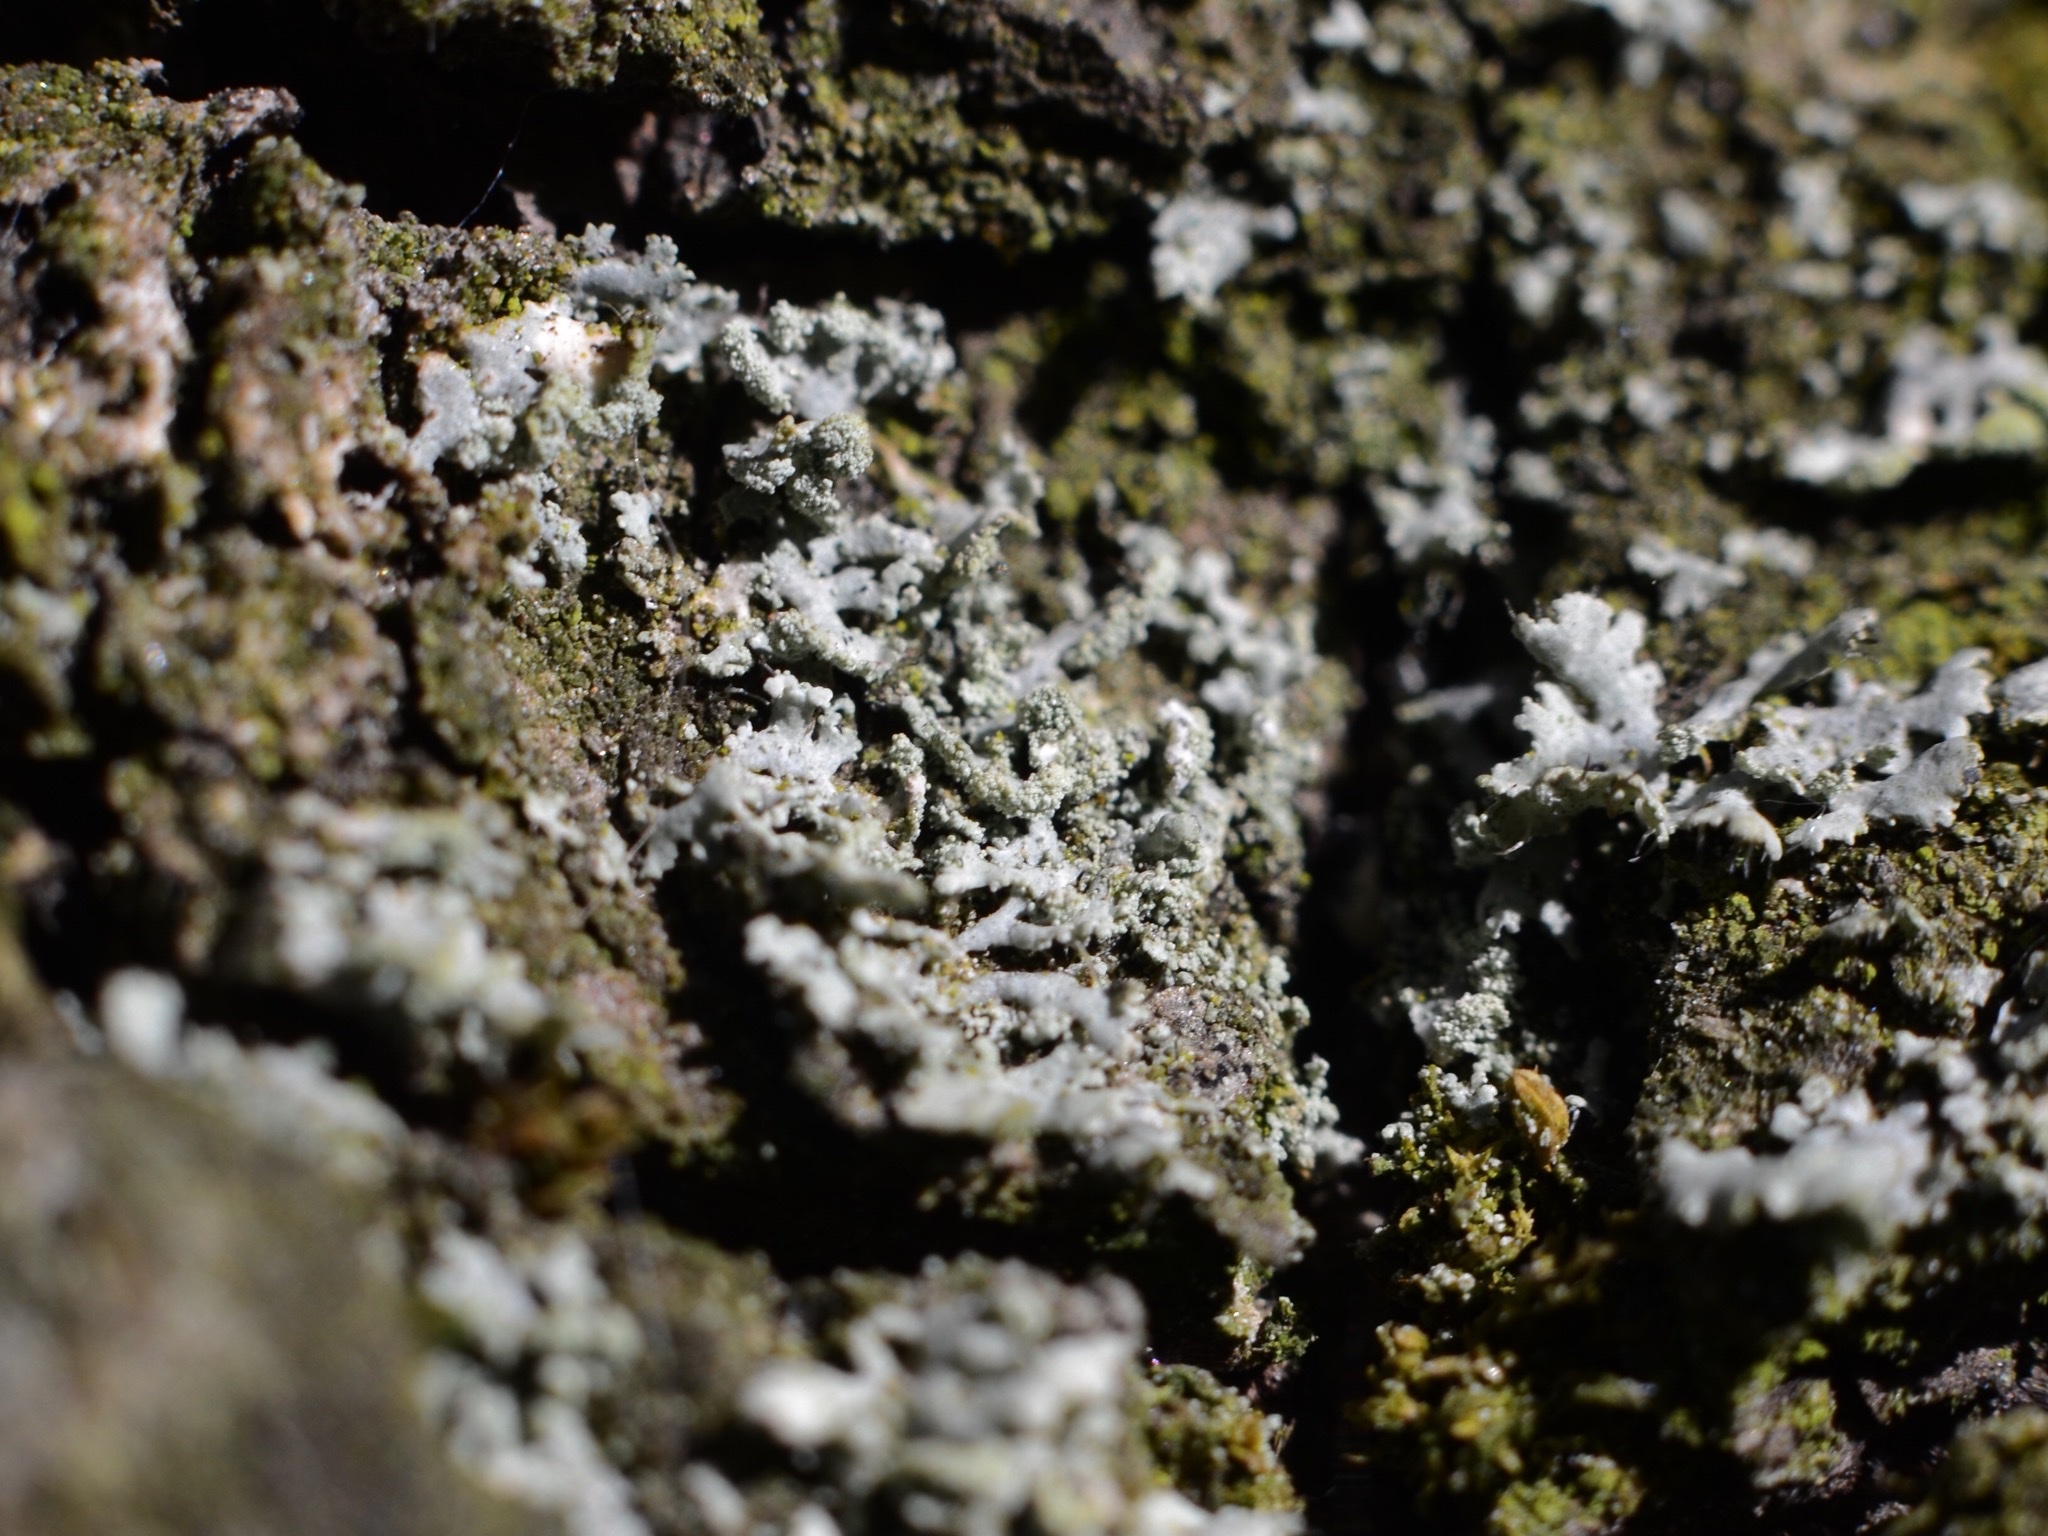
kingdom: Fungi
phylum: Ascomycota
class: Lecanoromycetes
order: Caliciales
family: Physciaceae
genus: Physcia
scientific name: Physcia tenella
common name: Fringed rosette lichen
